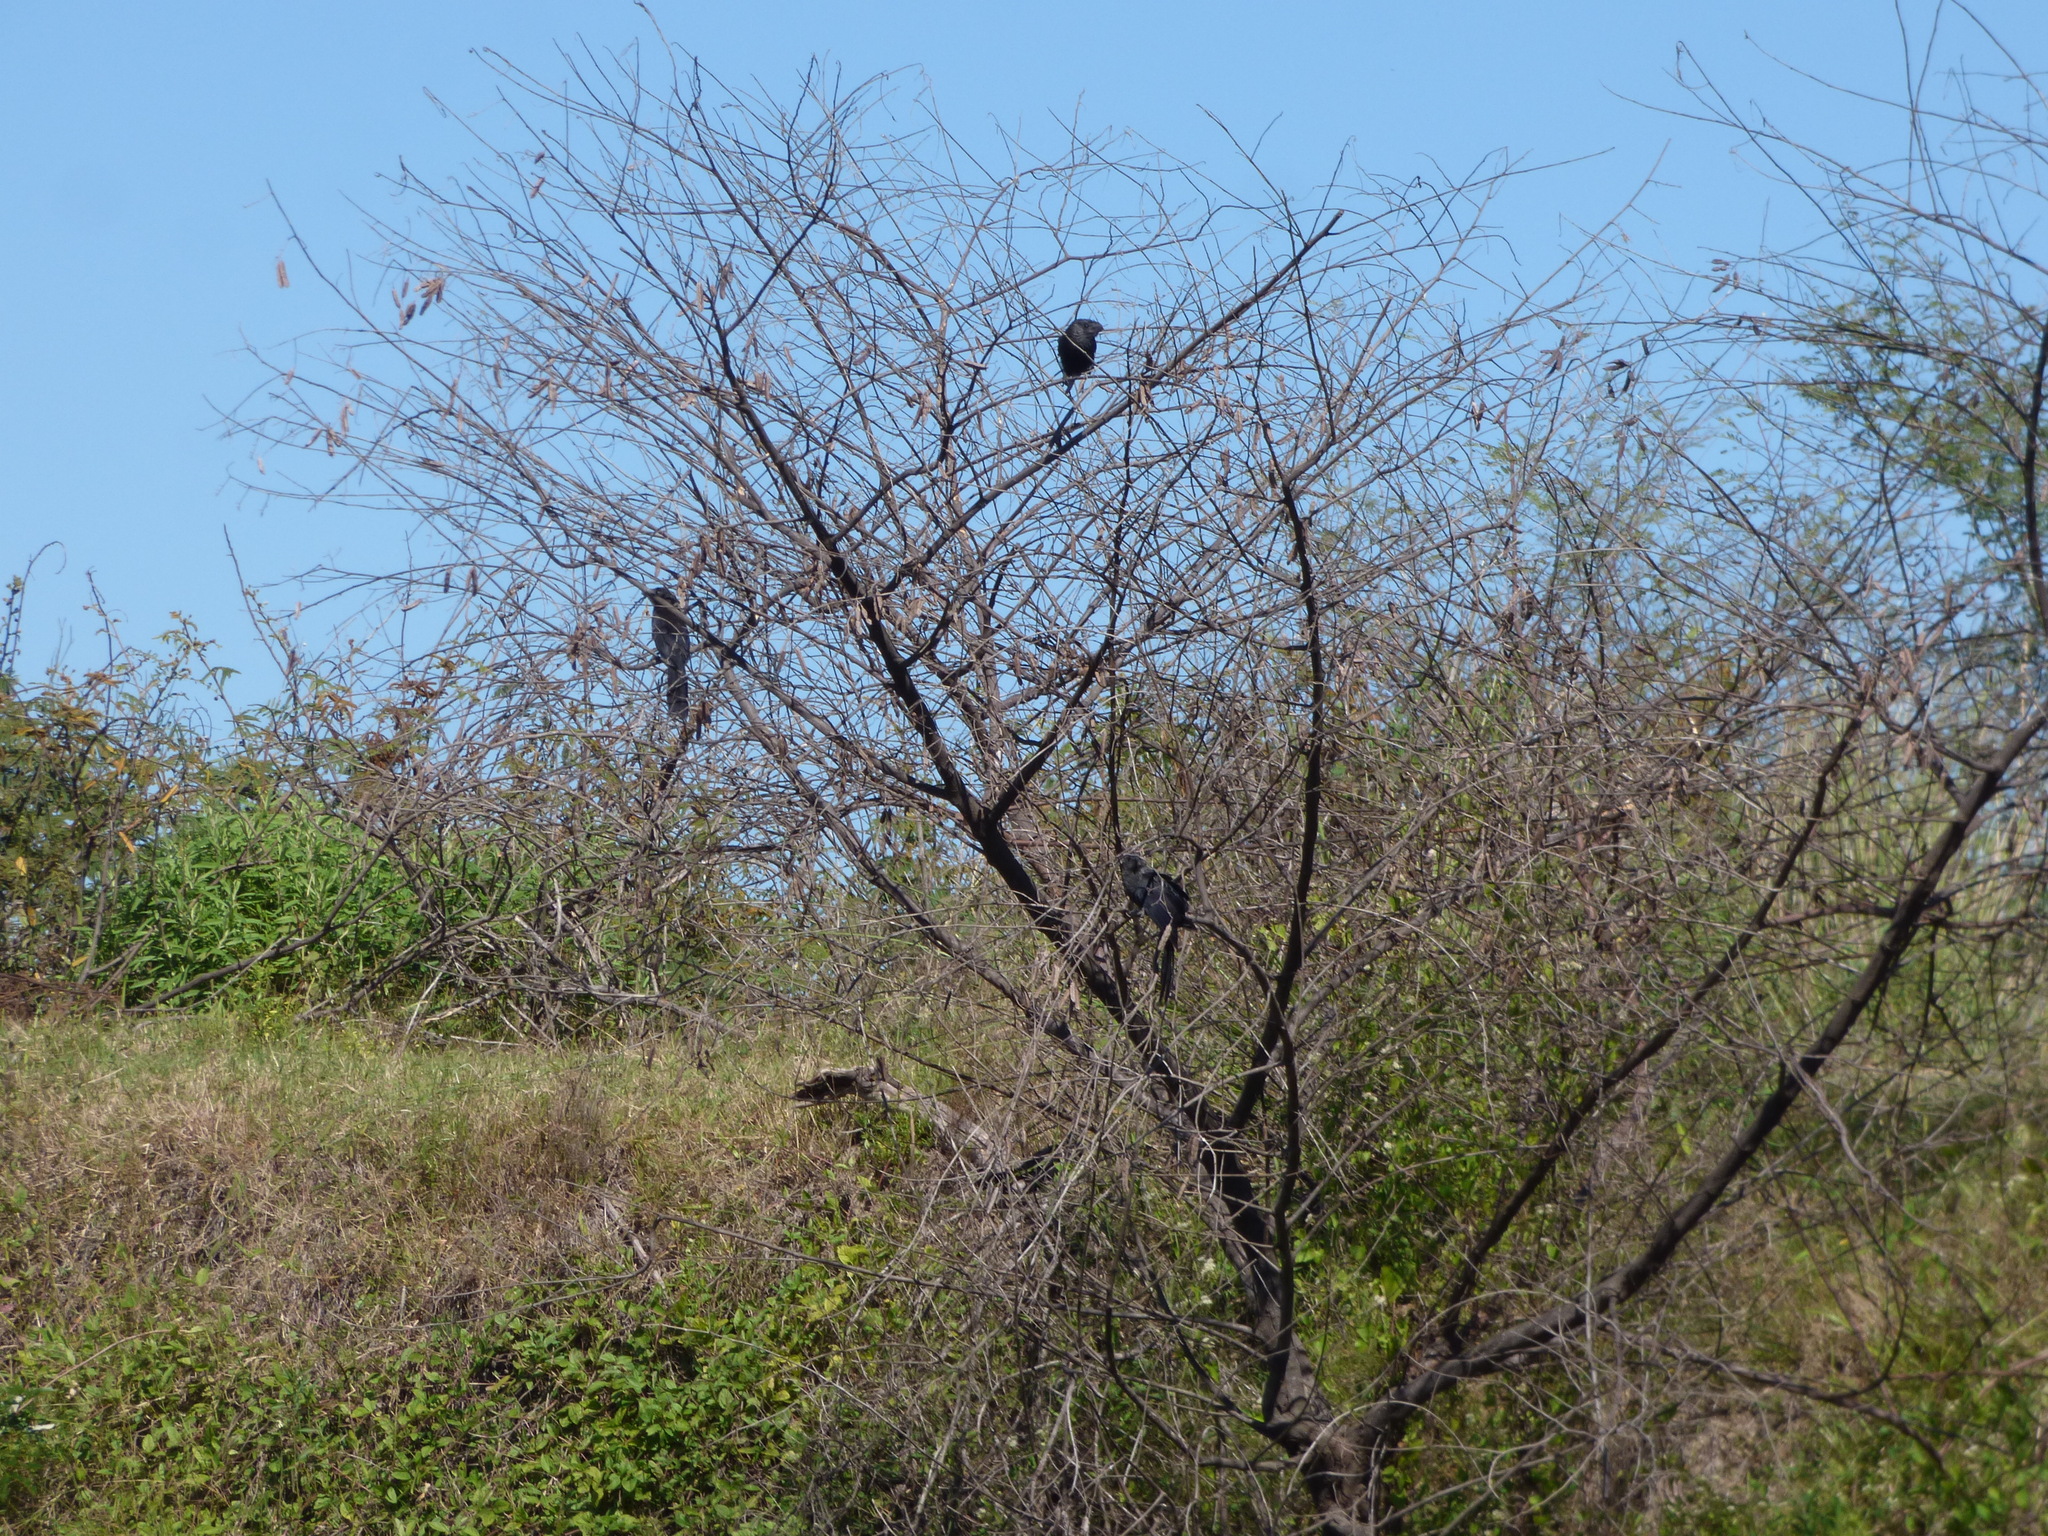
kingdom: Animalia
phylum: Chordata
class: Aves
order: Cuculiformes
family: Cuculidae
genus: Crotophaga
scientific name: Crotophaga ani
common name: Smooth-billed ani
